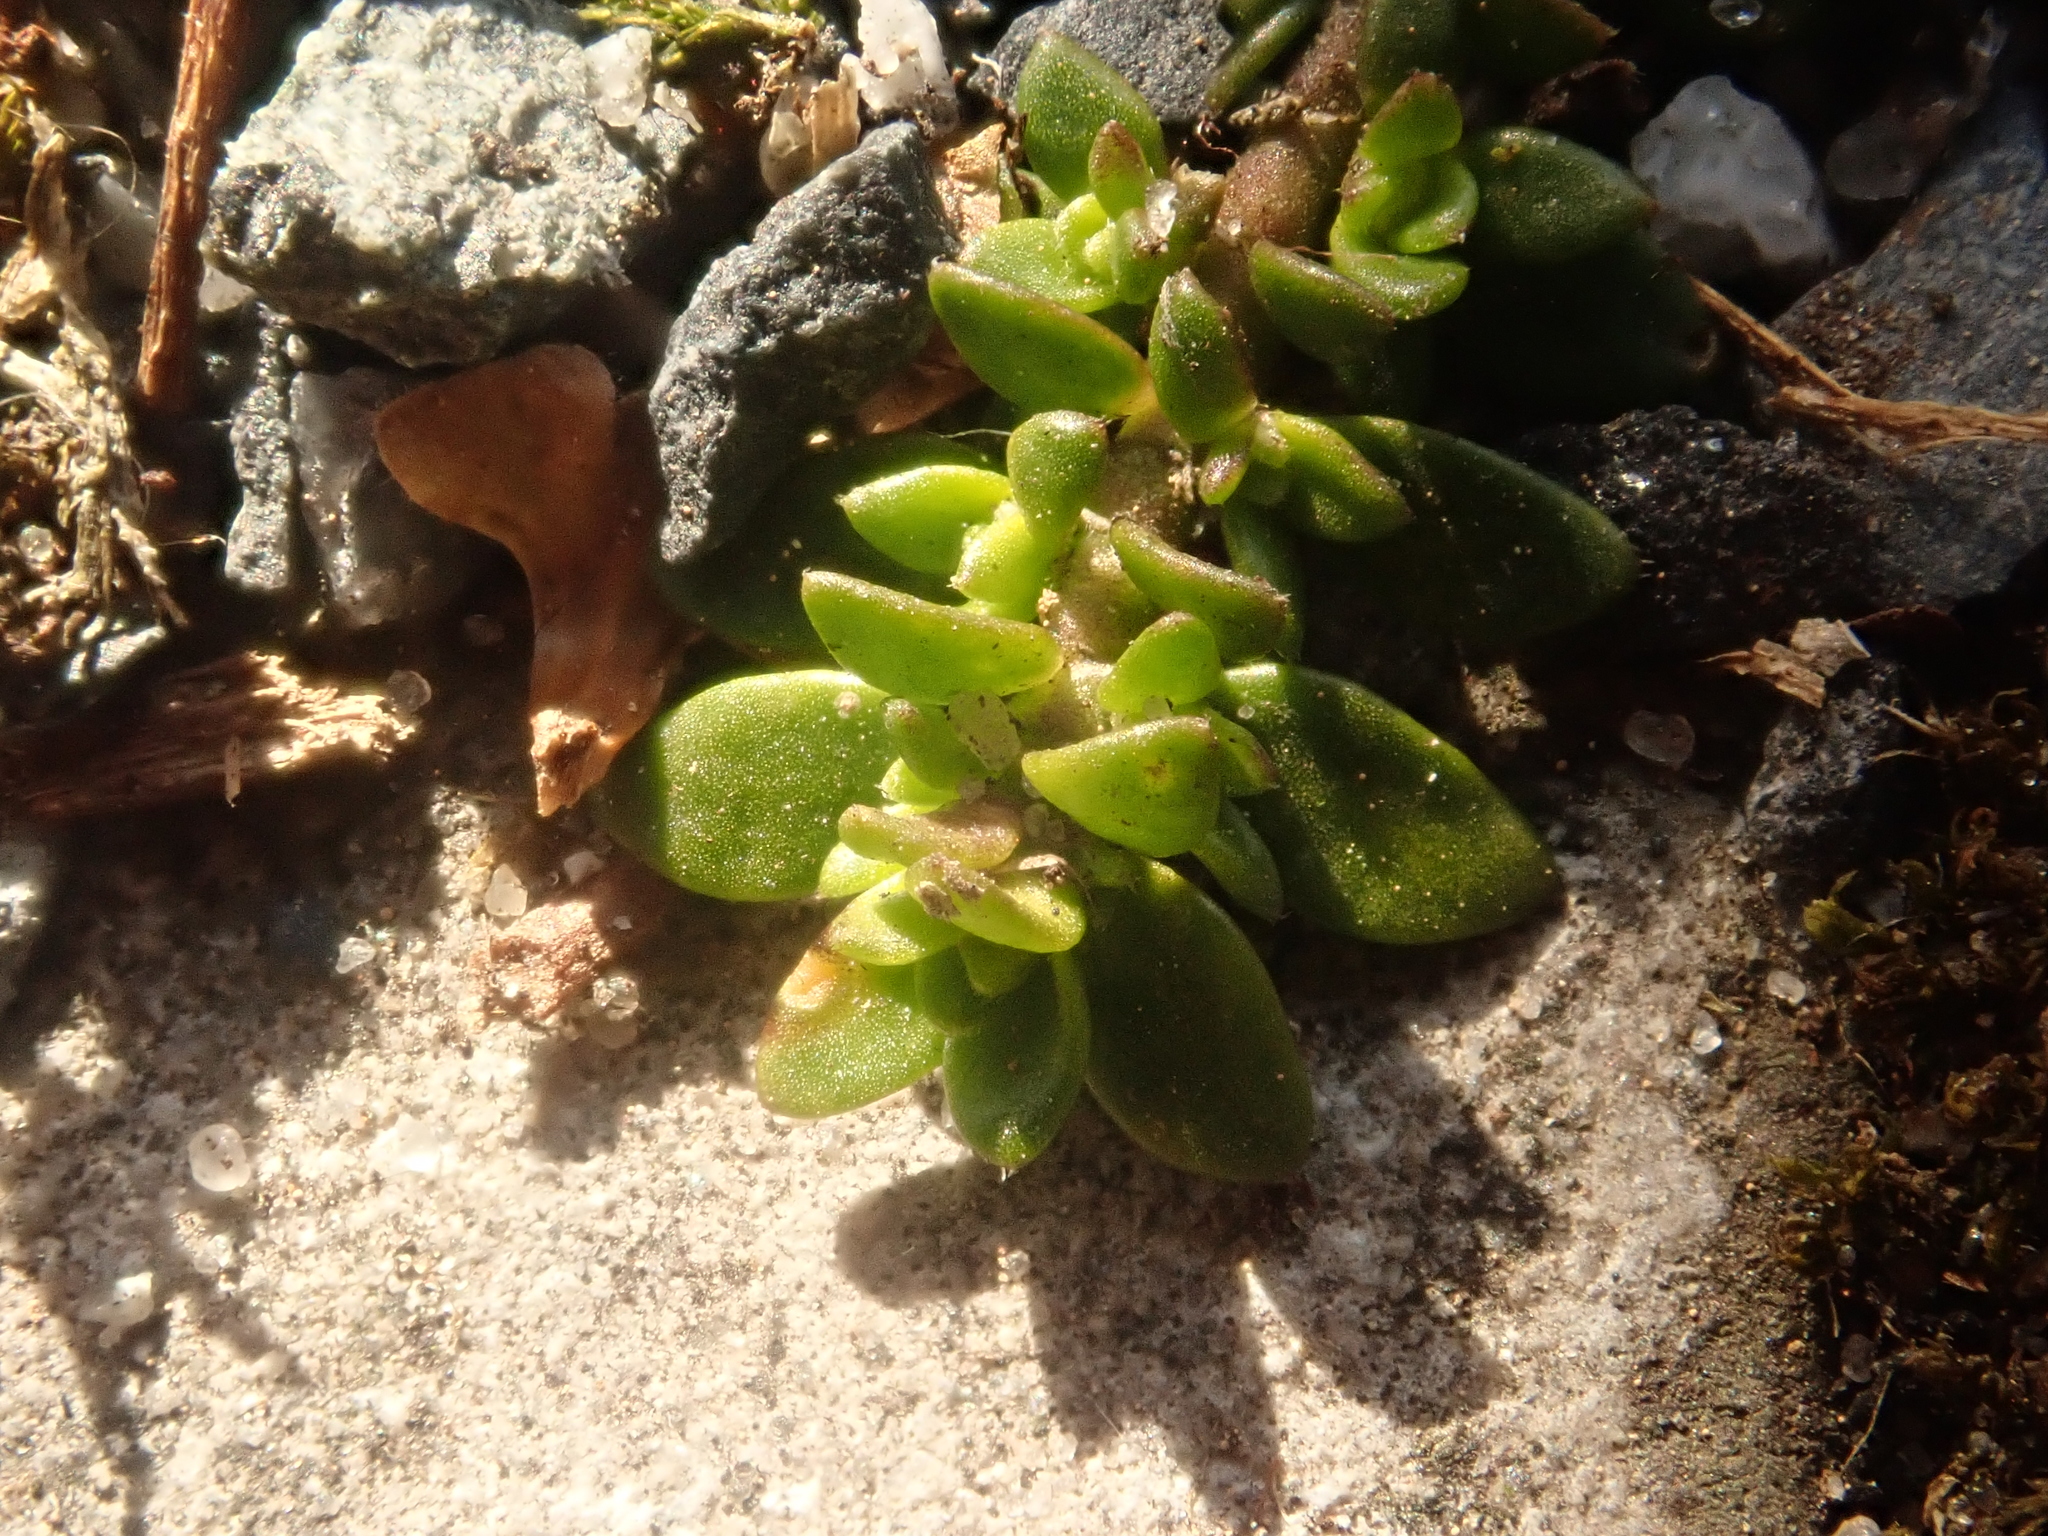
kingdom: Plantae
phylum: Tracheophyta
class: Magnoliopsida
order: Caryophyllales
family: Caryophyllaceae
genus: Herniaria
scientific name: Herniaria glabra
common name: Smooth rupturewort
